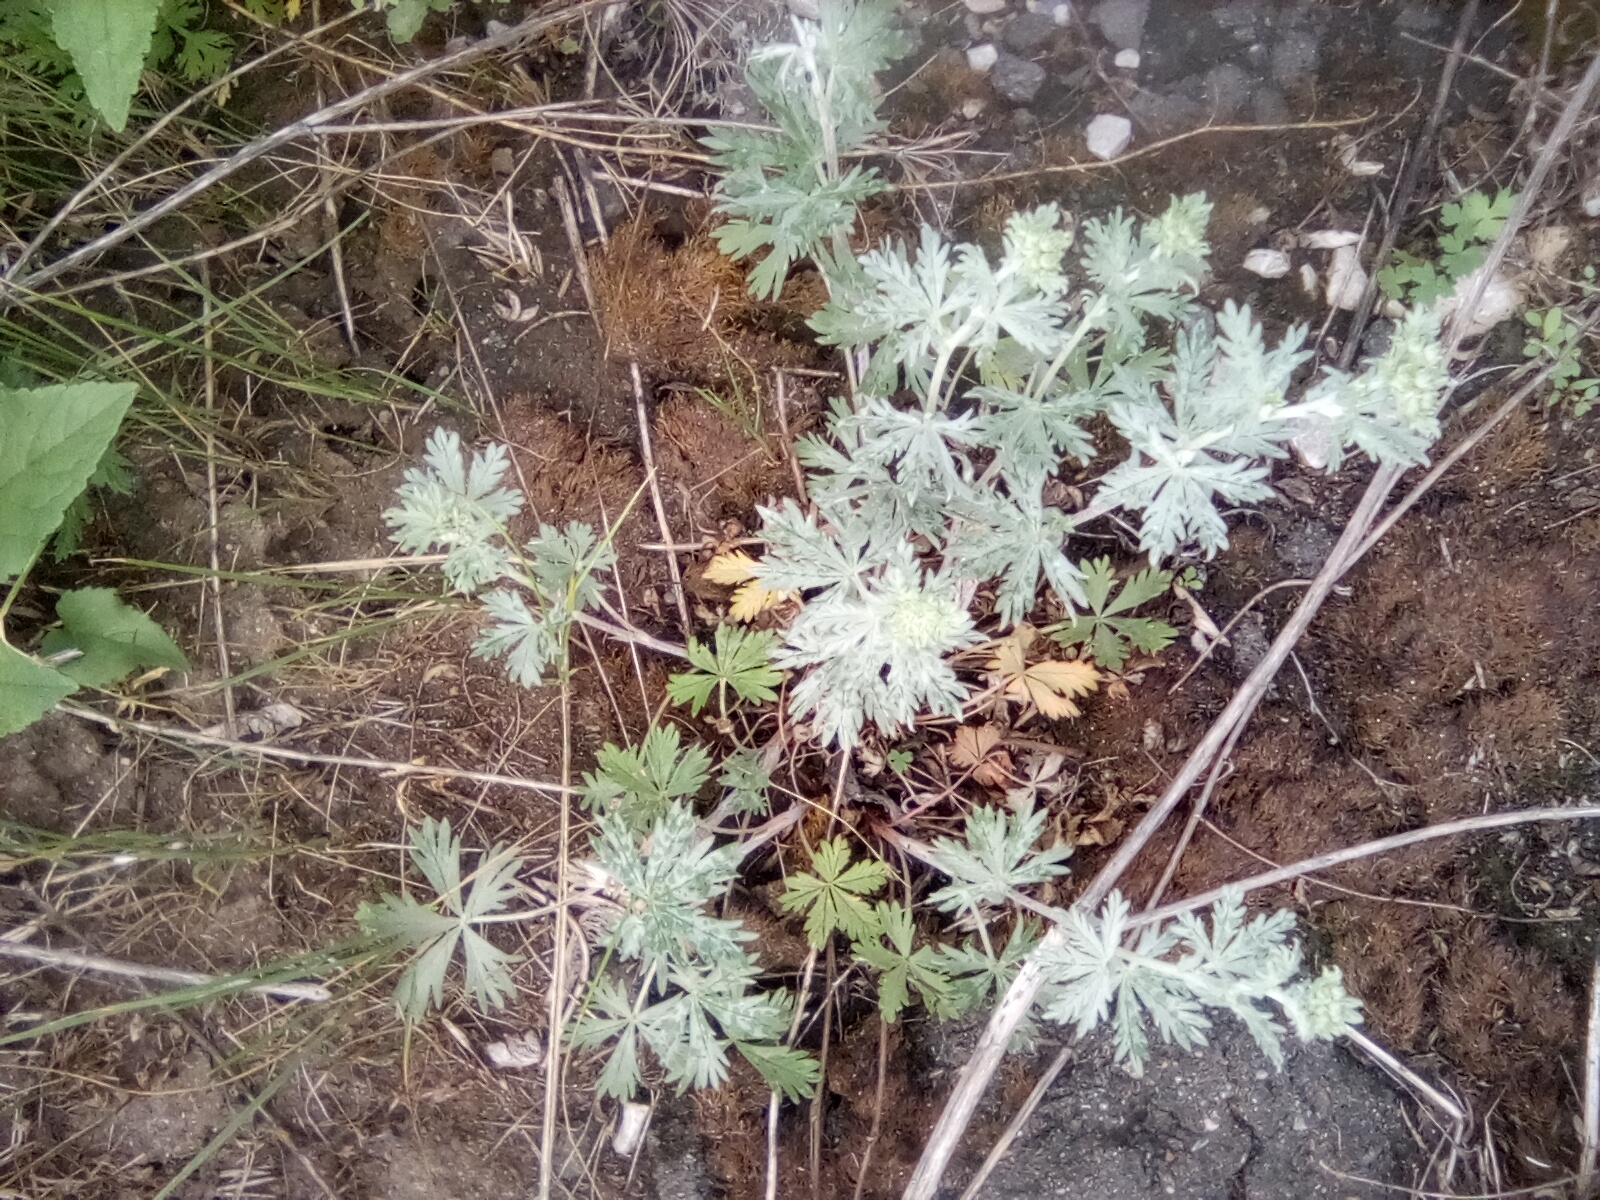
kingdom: Plantae
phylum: Tracheophyta
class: Magnoliopsida
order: Rosales
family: Rosaceae
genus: Potentilla
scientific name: Potentilla argentea
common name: Hoary cinquefoil
